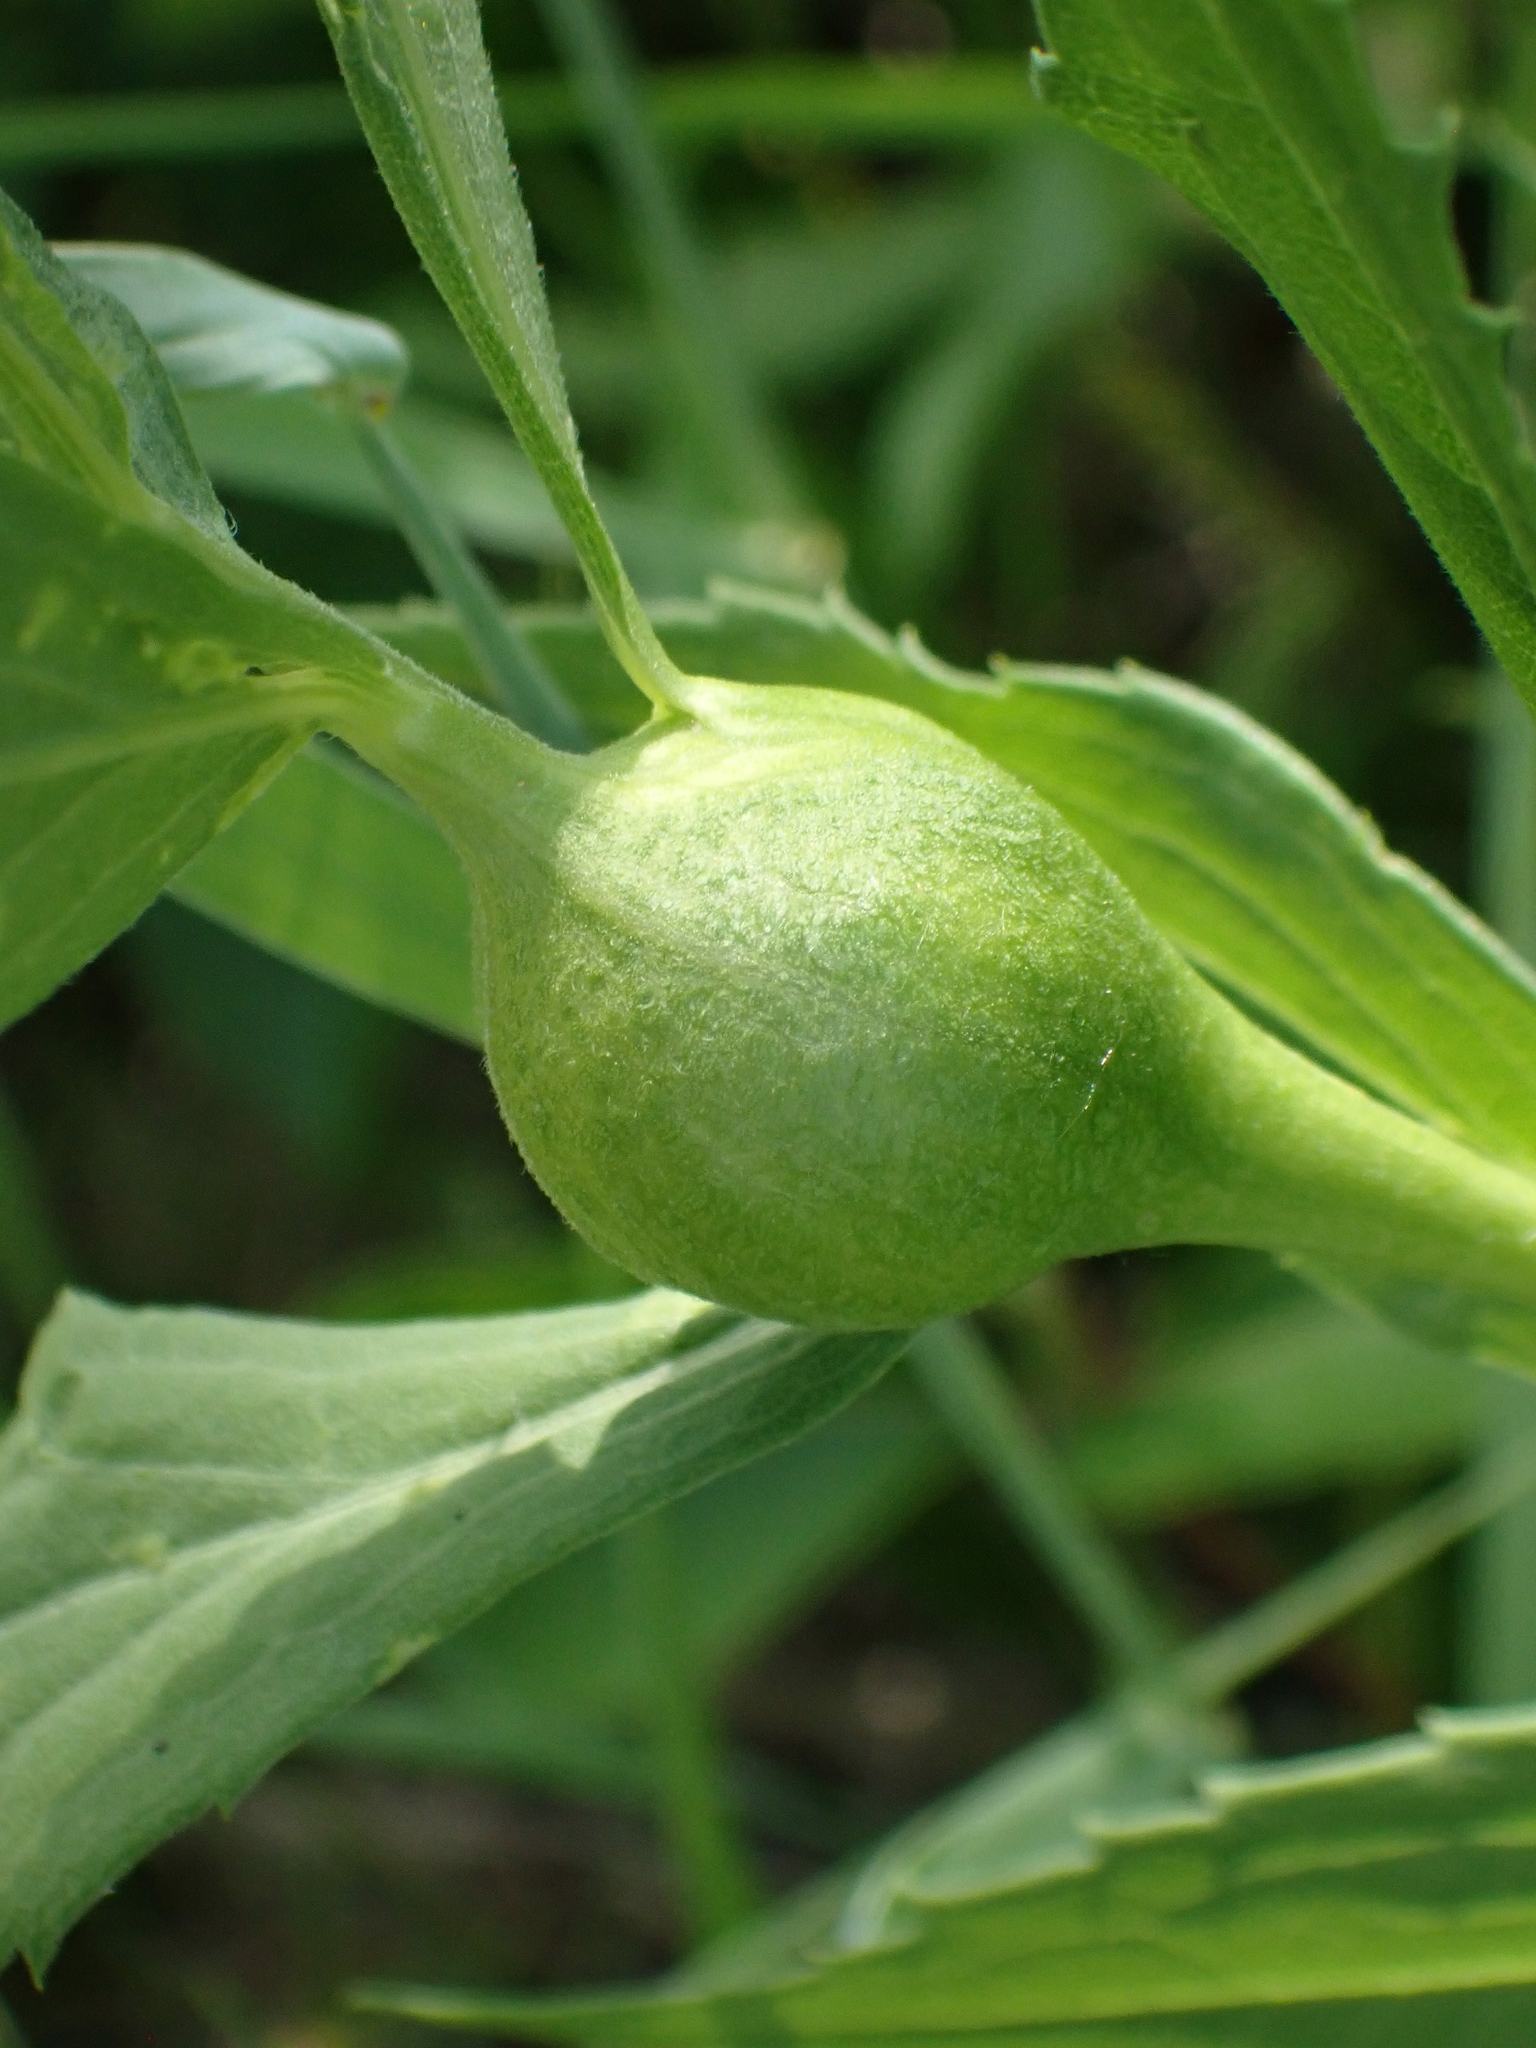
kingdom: Animalia
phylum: Arthropoda
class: Insecta
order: Diptera
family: Tephritidae
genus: Eurosta
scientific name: Eurosta solidaginis
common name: Goldenrod gall fly
